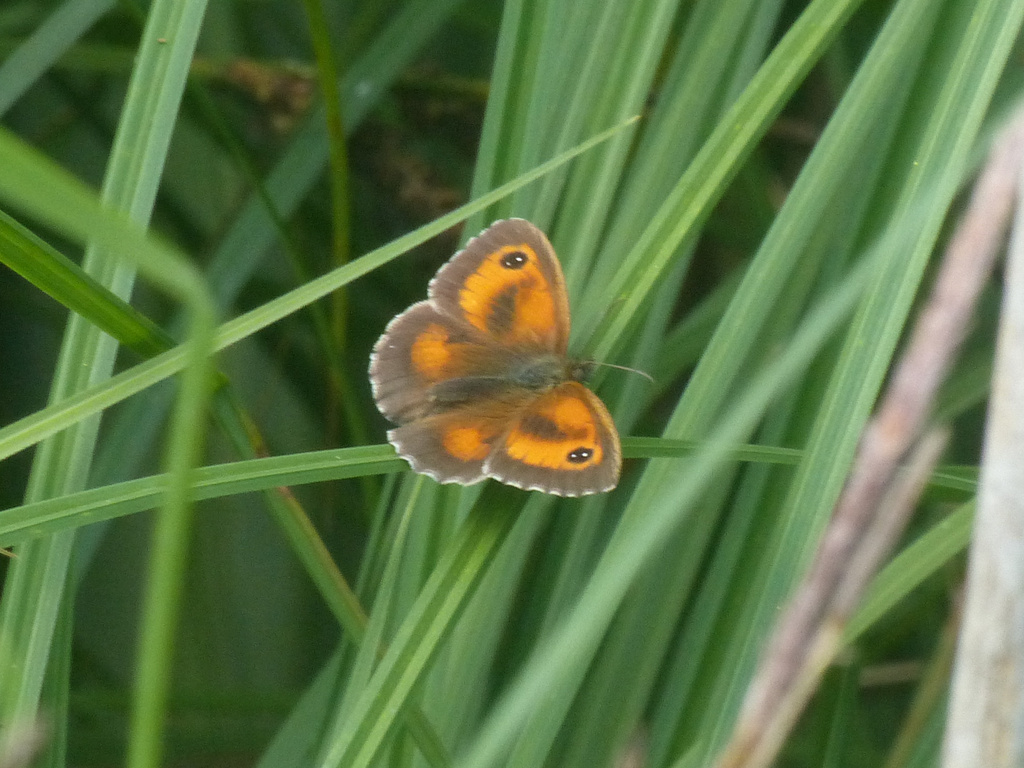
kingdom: Animalia
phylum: Arthropoda
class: Insecta
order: Lepidoptera
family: Nymphalidae
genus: Pyronia
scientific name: Pyronia tithonus
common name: Gatekeeper
